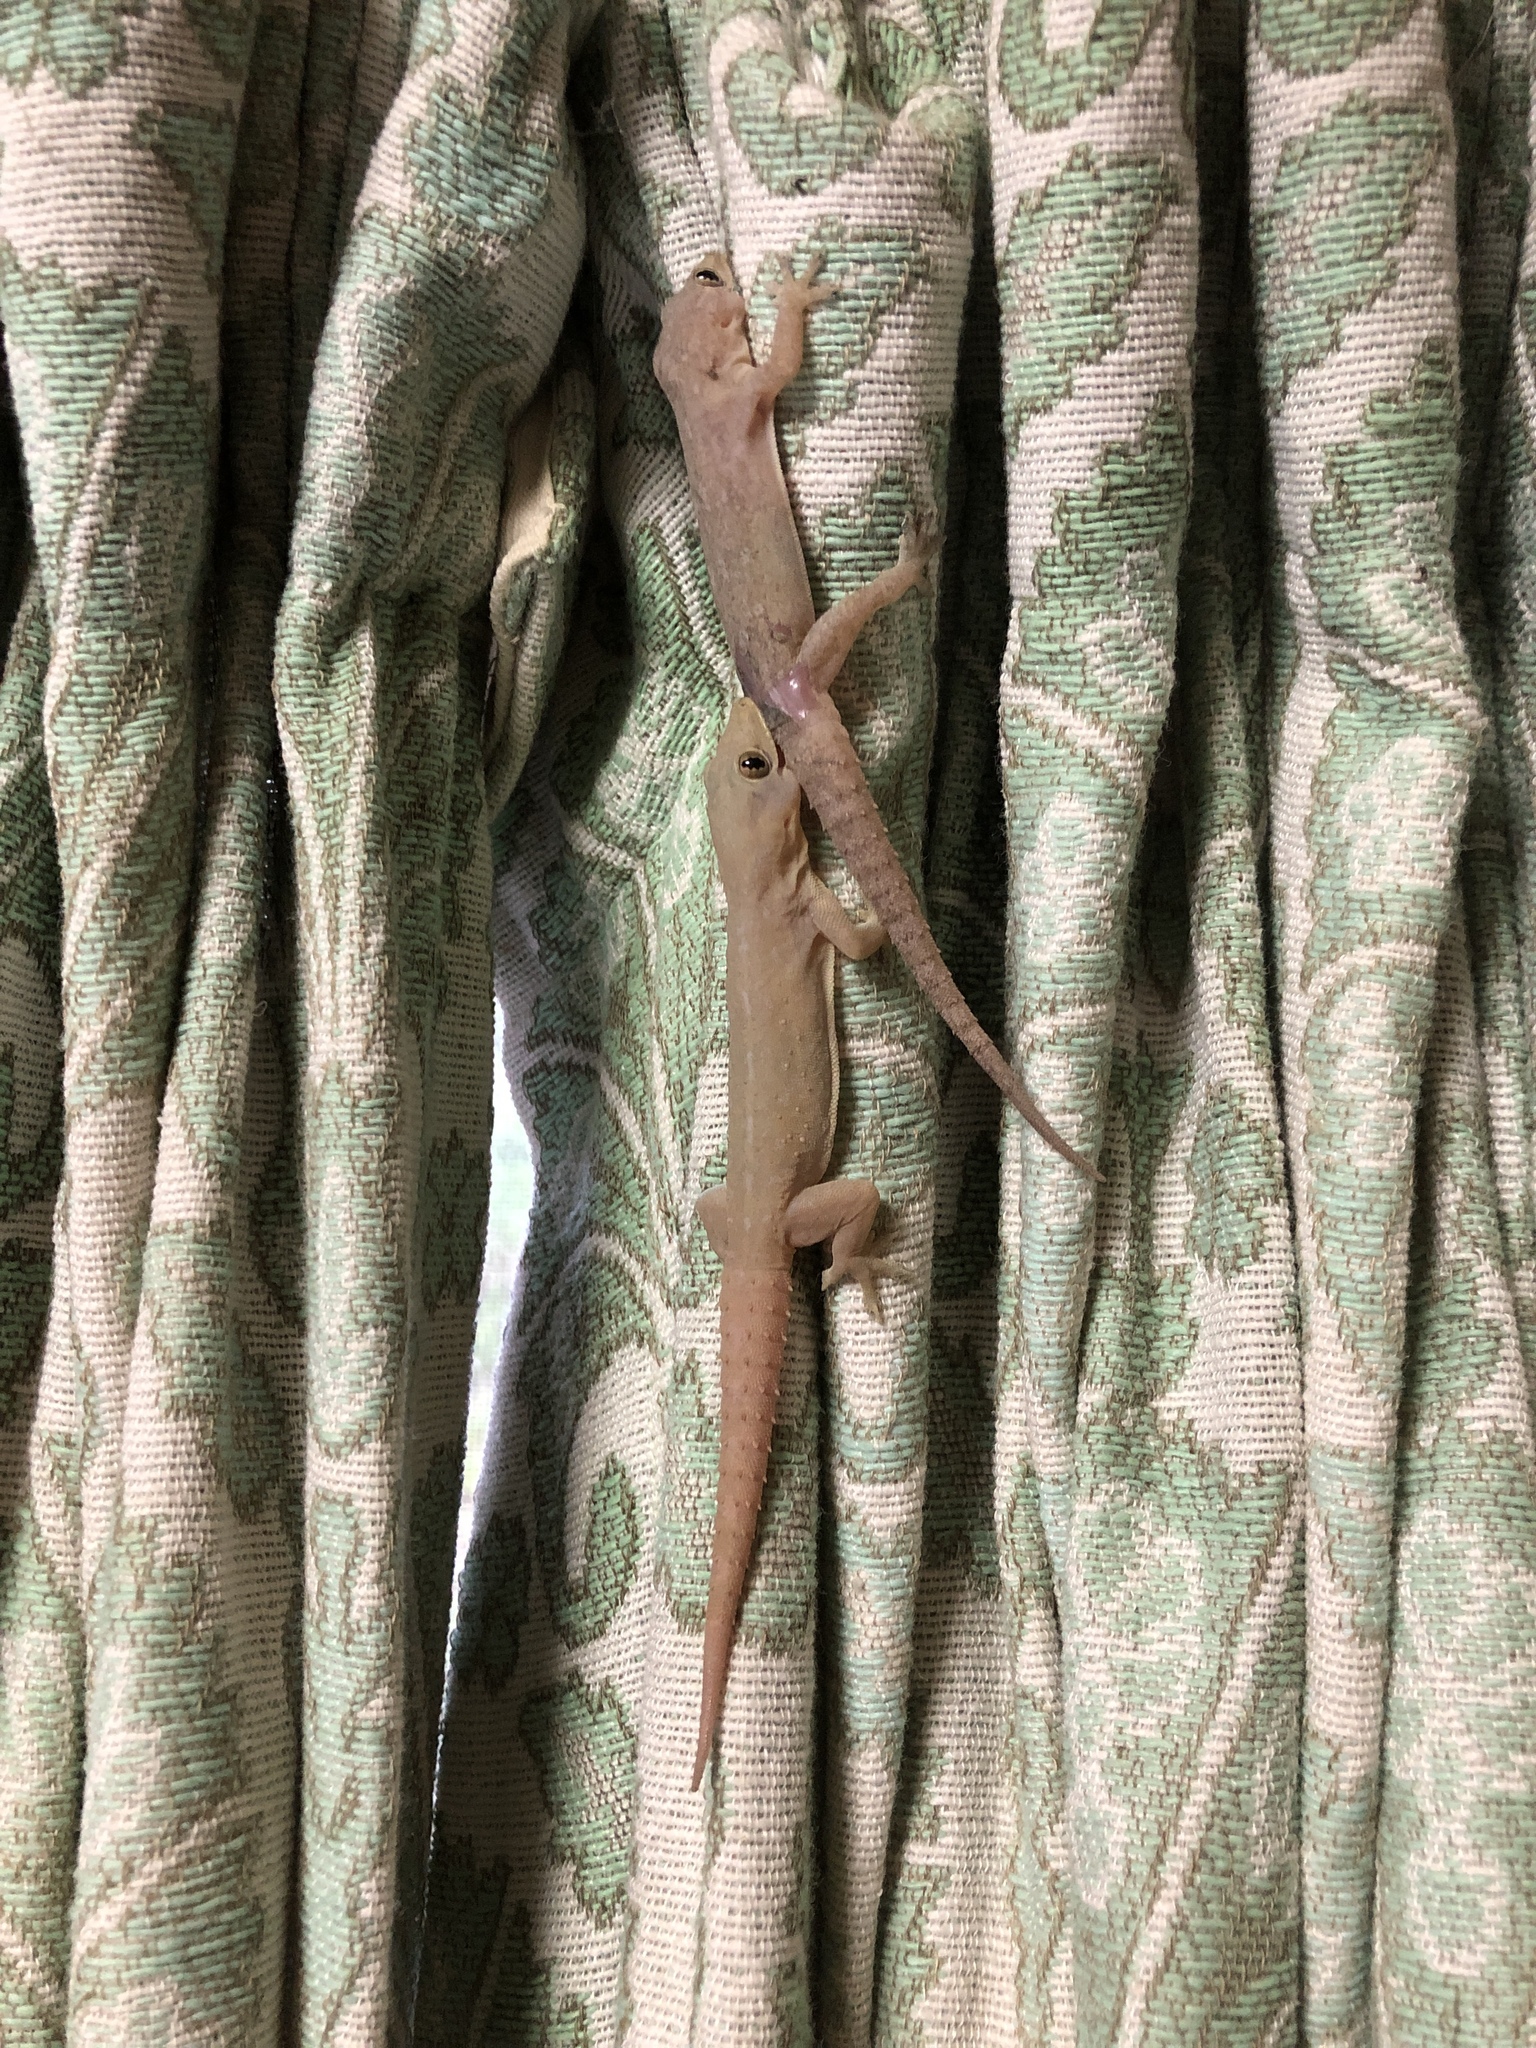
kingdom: Animalia
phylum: Chordata
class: Squamata
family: Gekkonidae
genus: Hemidactylus
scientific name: Hemidactylus frenatus
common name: Common house gecko
